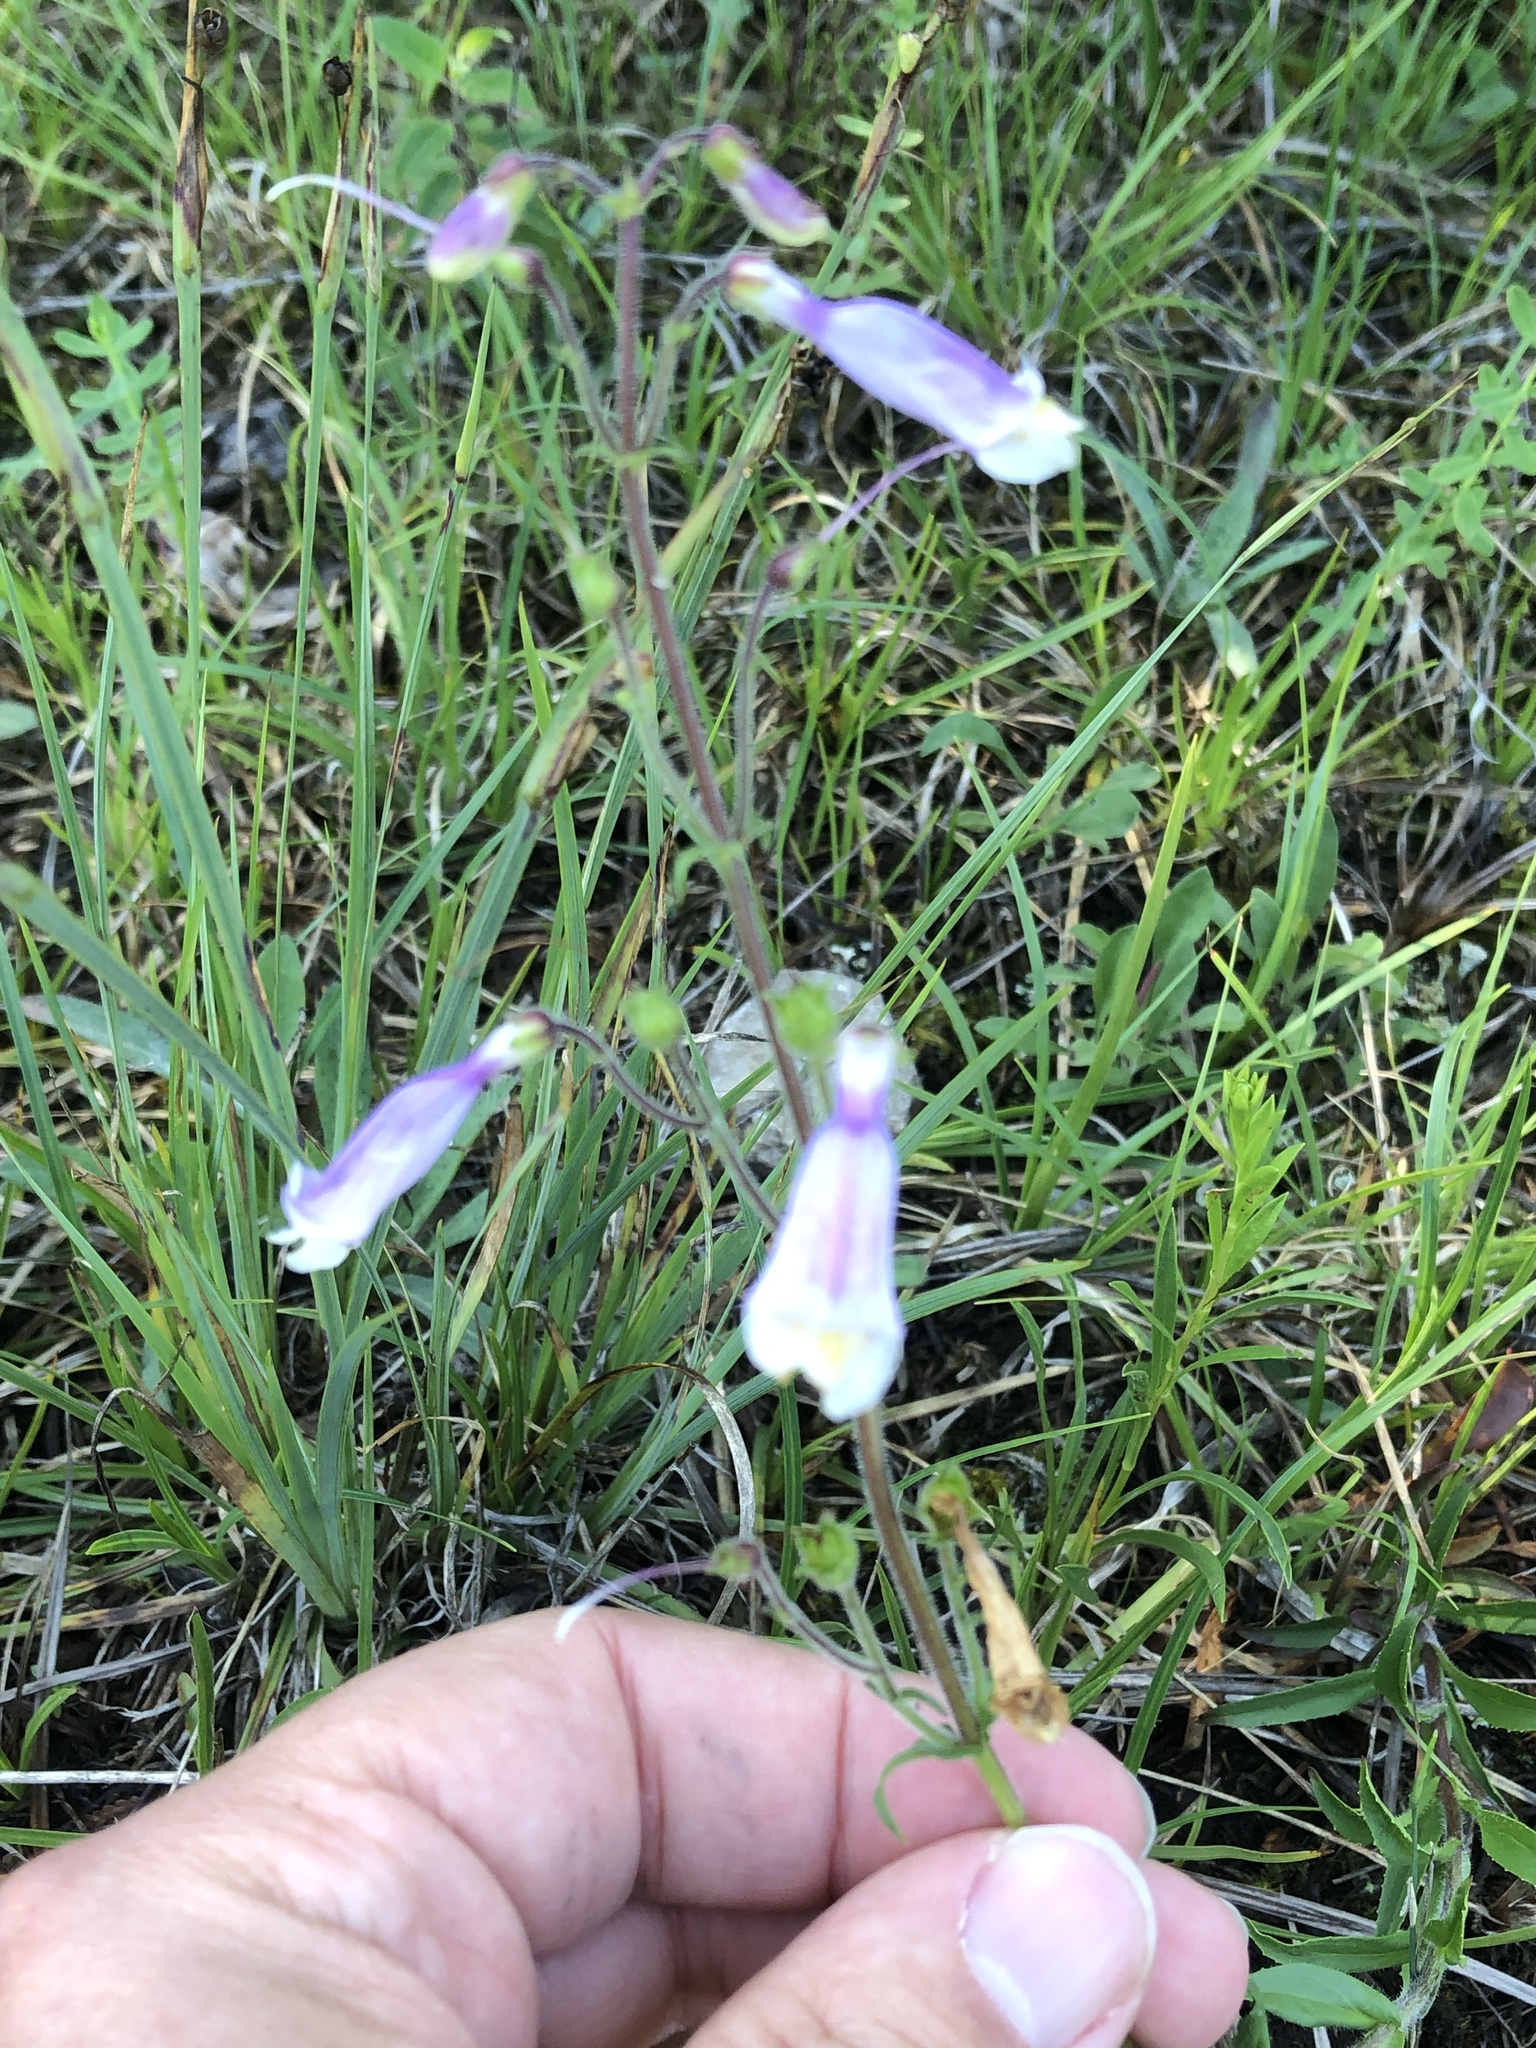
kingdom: Plantae
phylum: Tracheophyta
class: Magnoliopsida
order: Lamiales
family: Plantaginaceae
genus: Penstemon
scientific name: Penstemon hirsutus
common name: Hairy beardtongue
